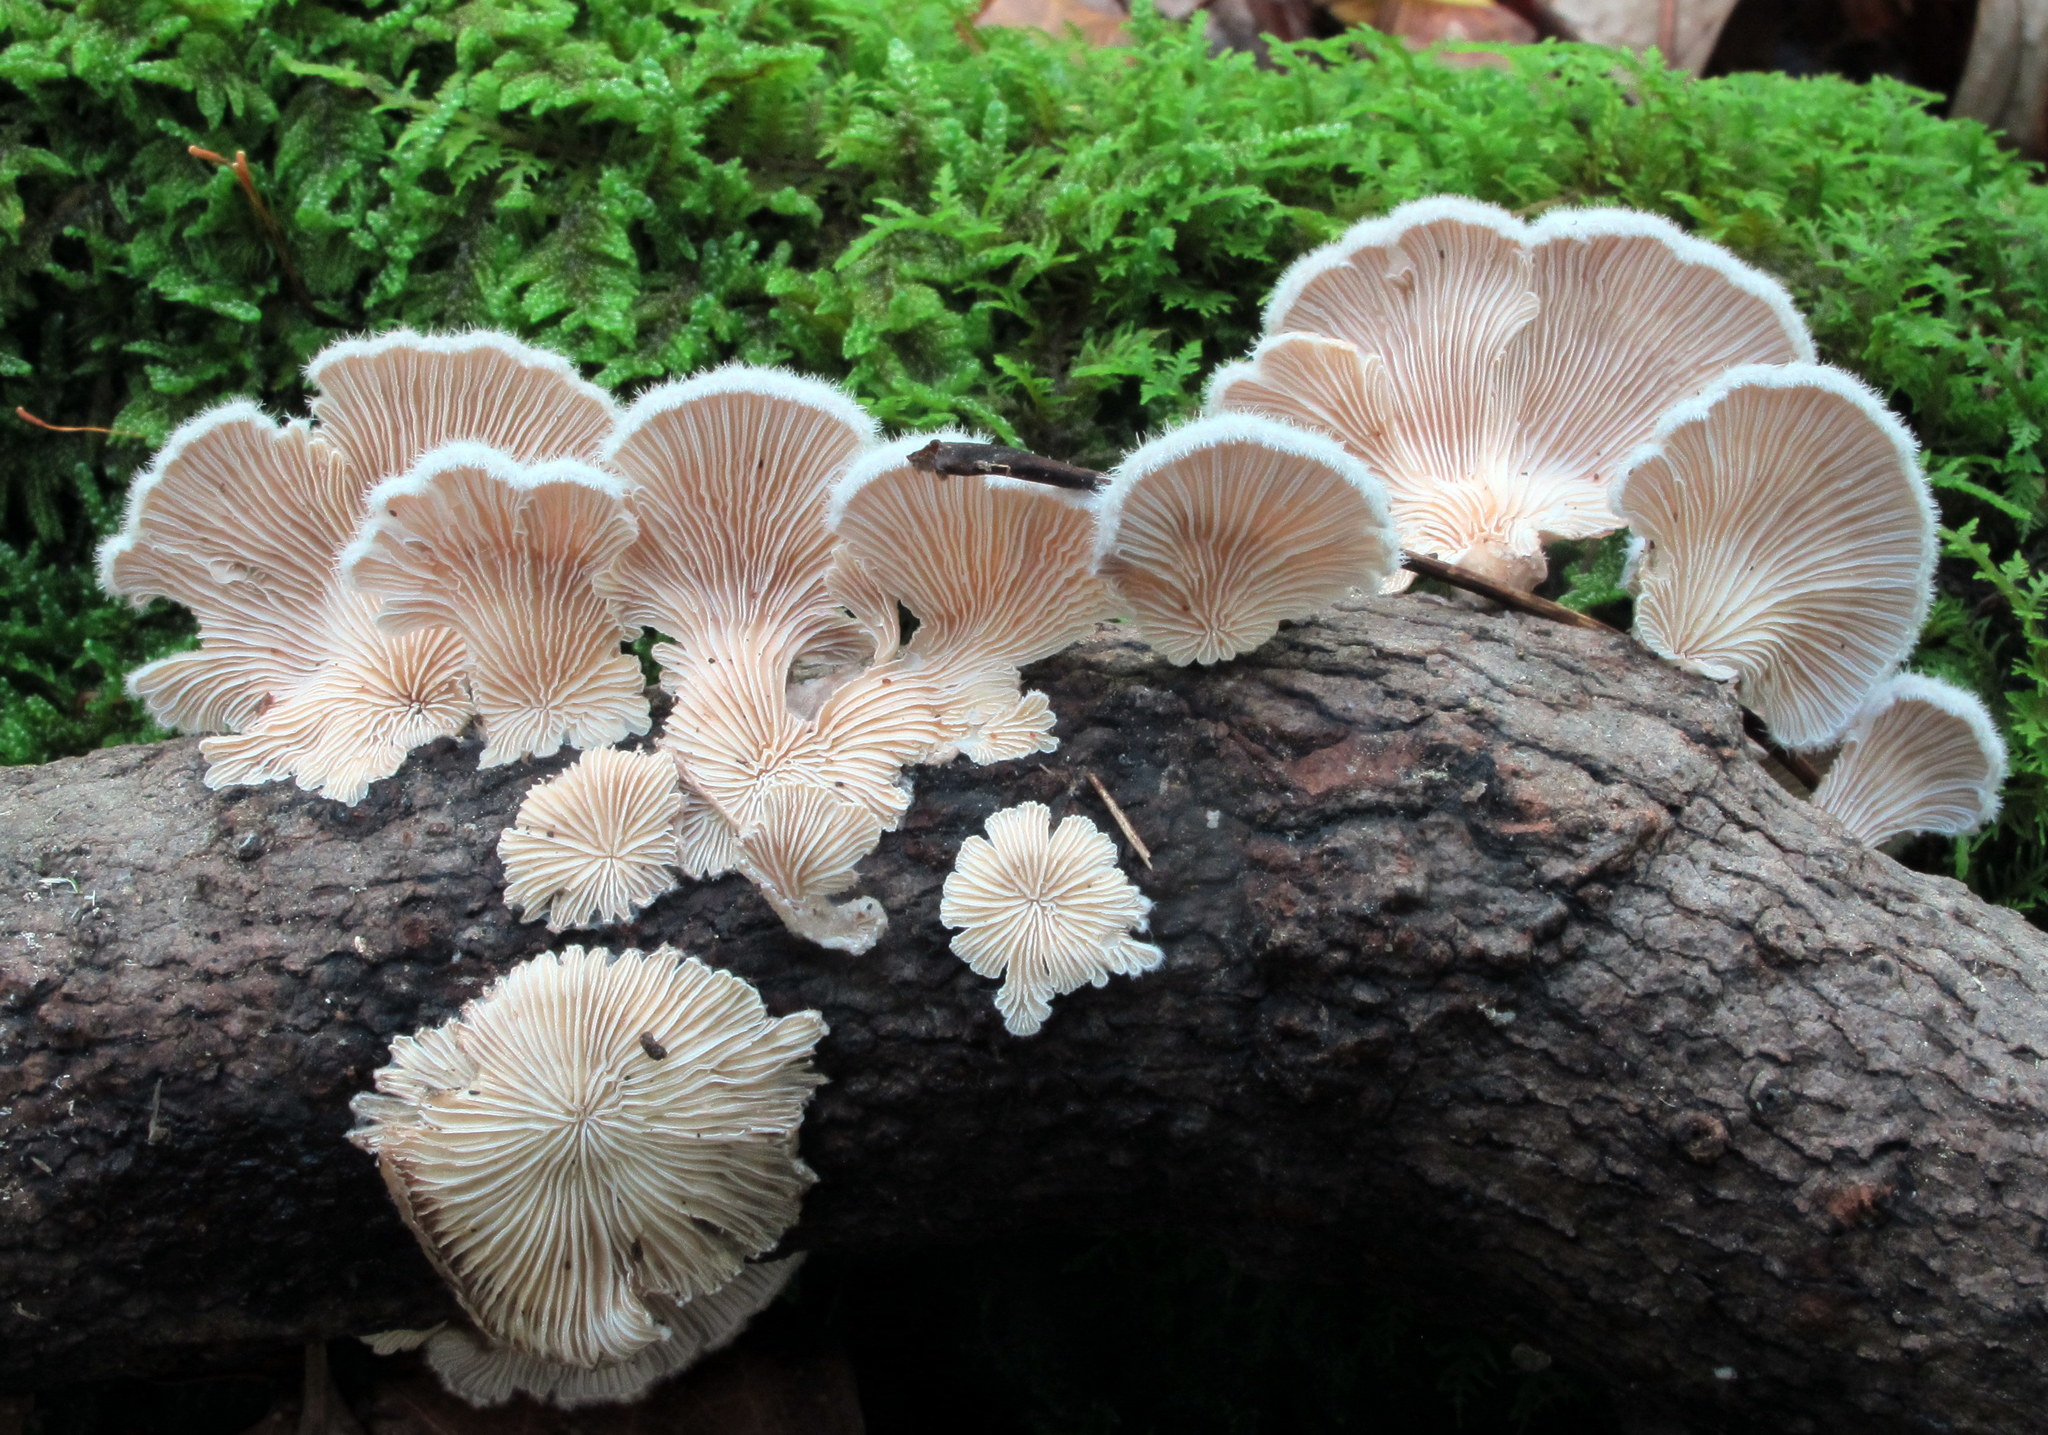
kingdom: Fungi
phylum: Basidiomycota
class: Agaricomycetes
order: Agaricales
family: Schizophyllaceae
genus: Schizophyllum
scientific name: Schizophyllum commune
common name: Common porecrust
